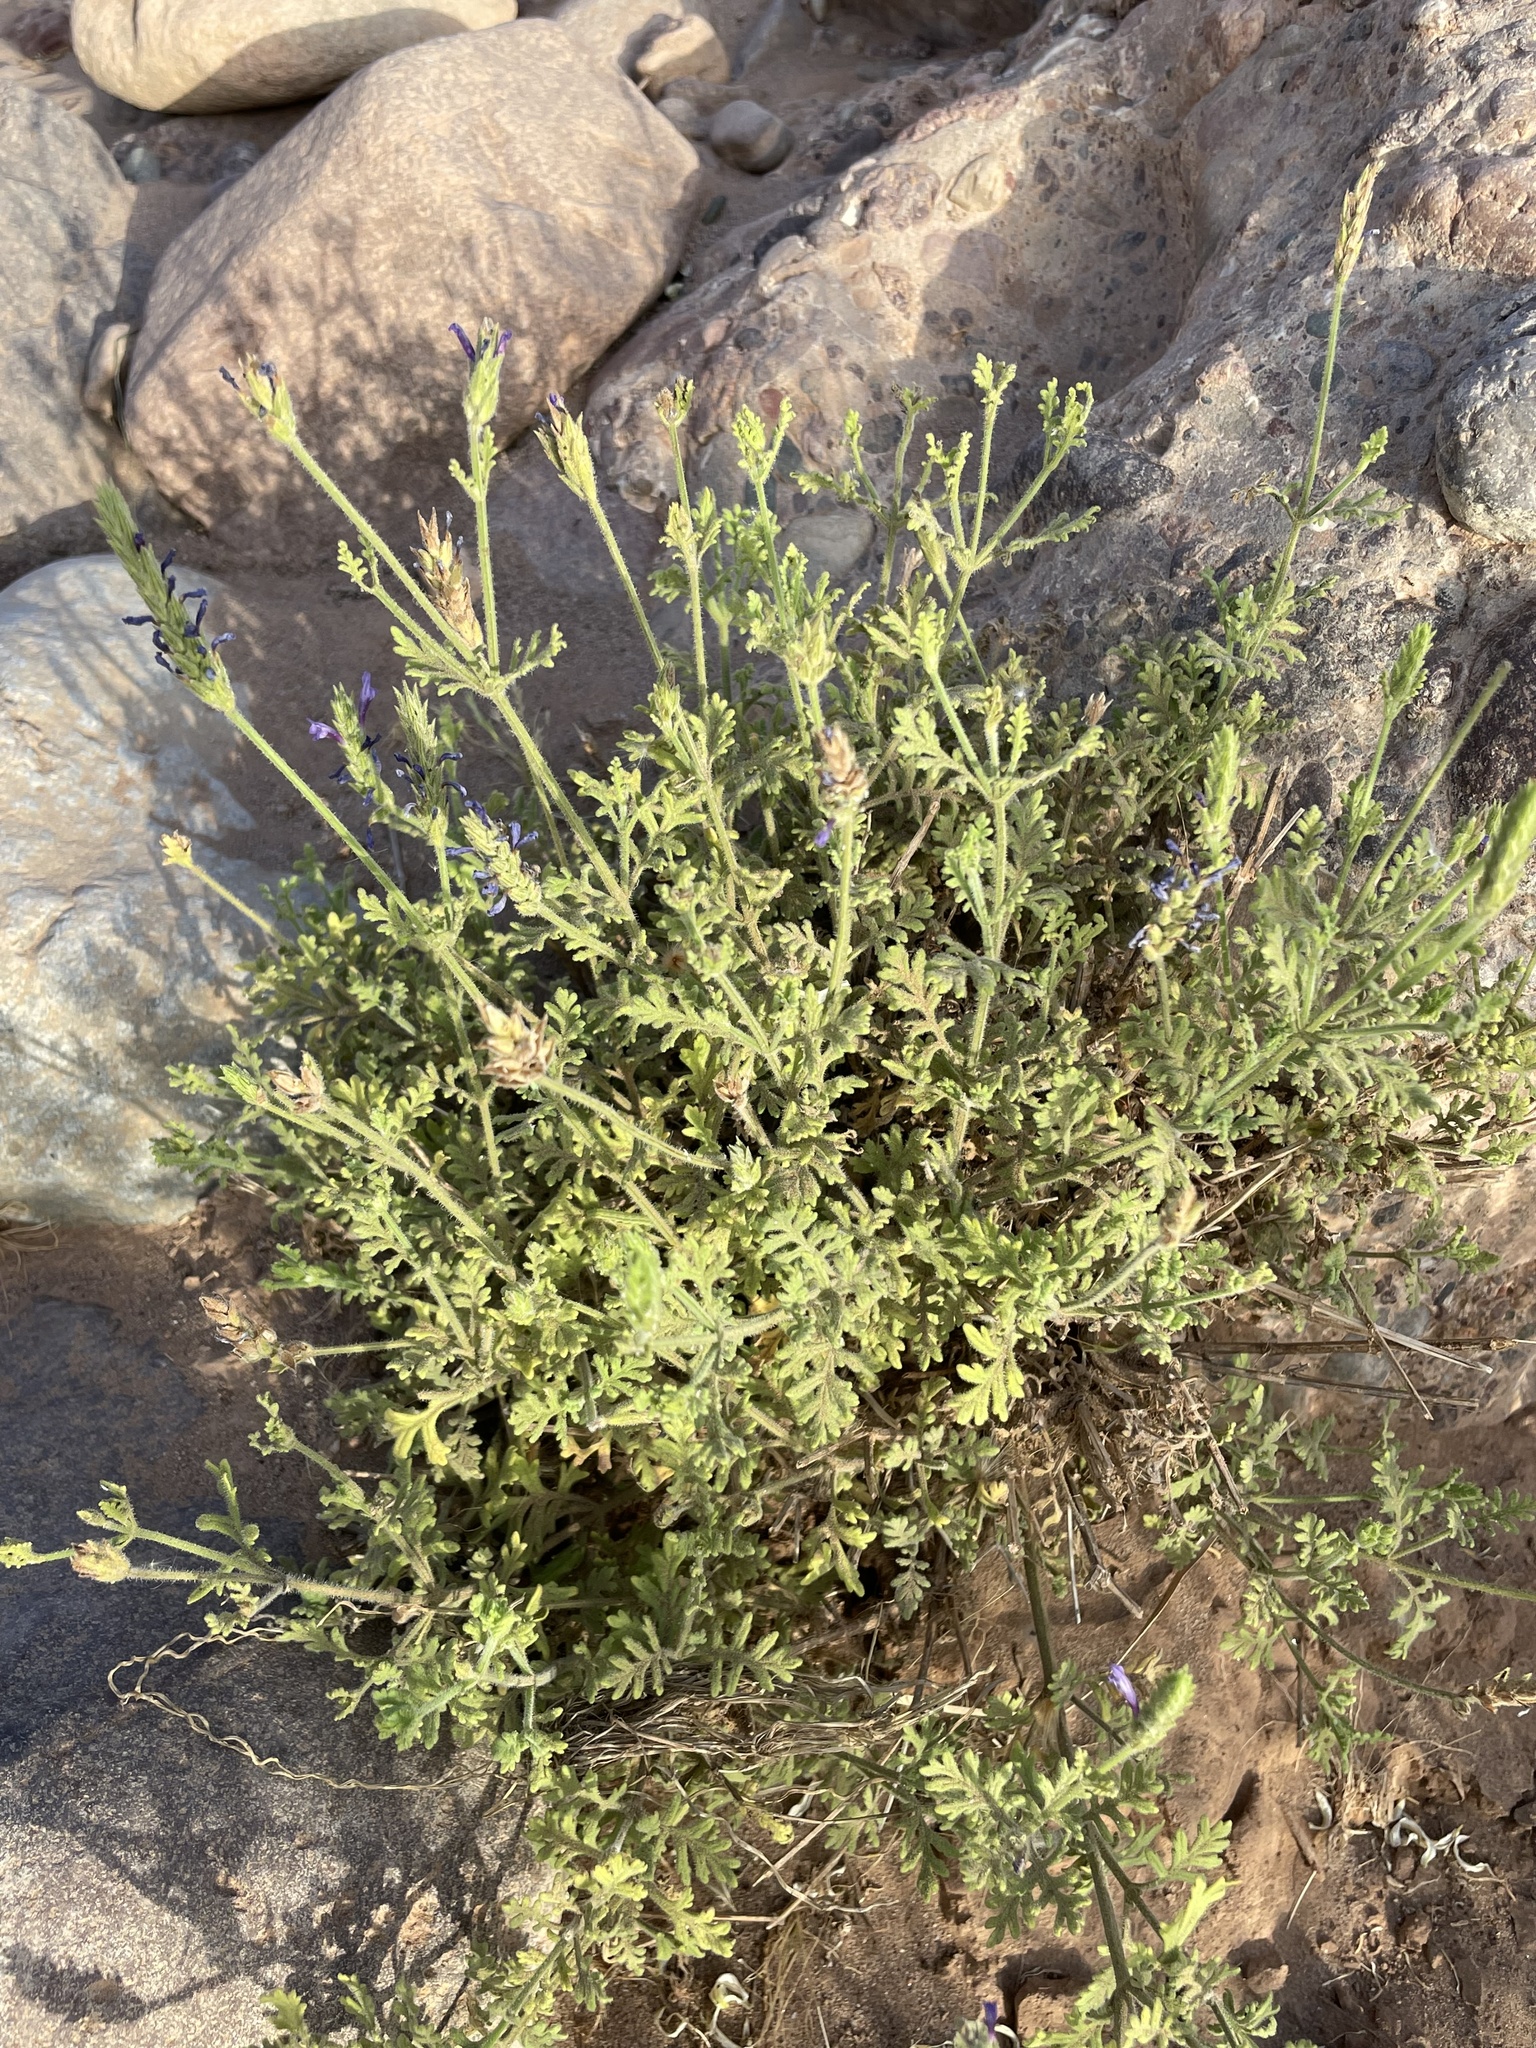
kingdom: Plantae
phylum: Tracheophyta
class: Magnoliopsida
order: Lamiales
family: Lamiaceae
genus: Lavandula
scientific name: Lavandula mairei
